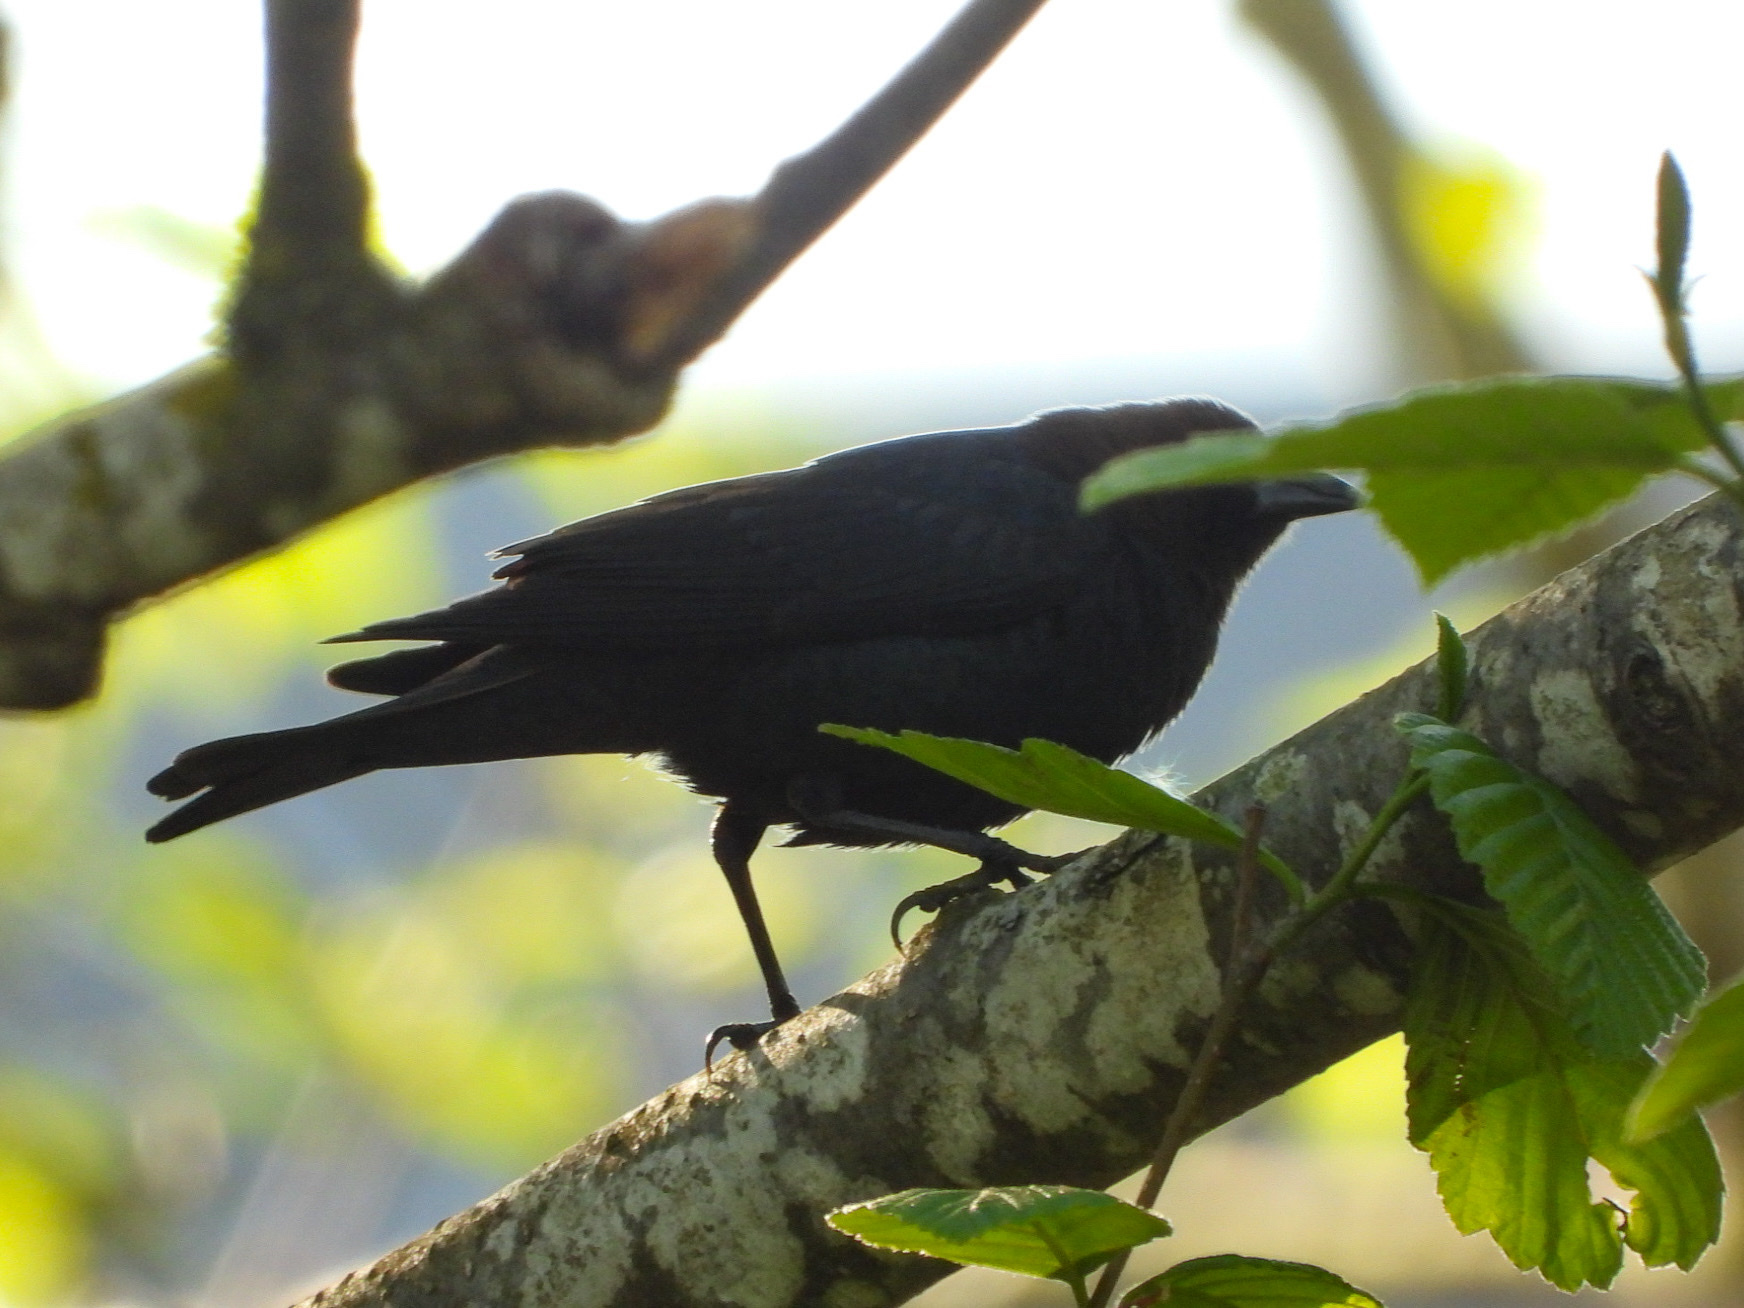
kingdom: Animalia
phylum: Chordata
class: Aves
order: Passeriformes
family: Icteridae
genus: Molothrus
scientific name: Molothrus ater
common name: Brown-headed cowbird
